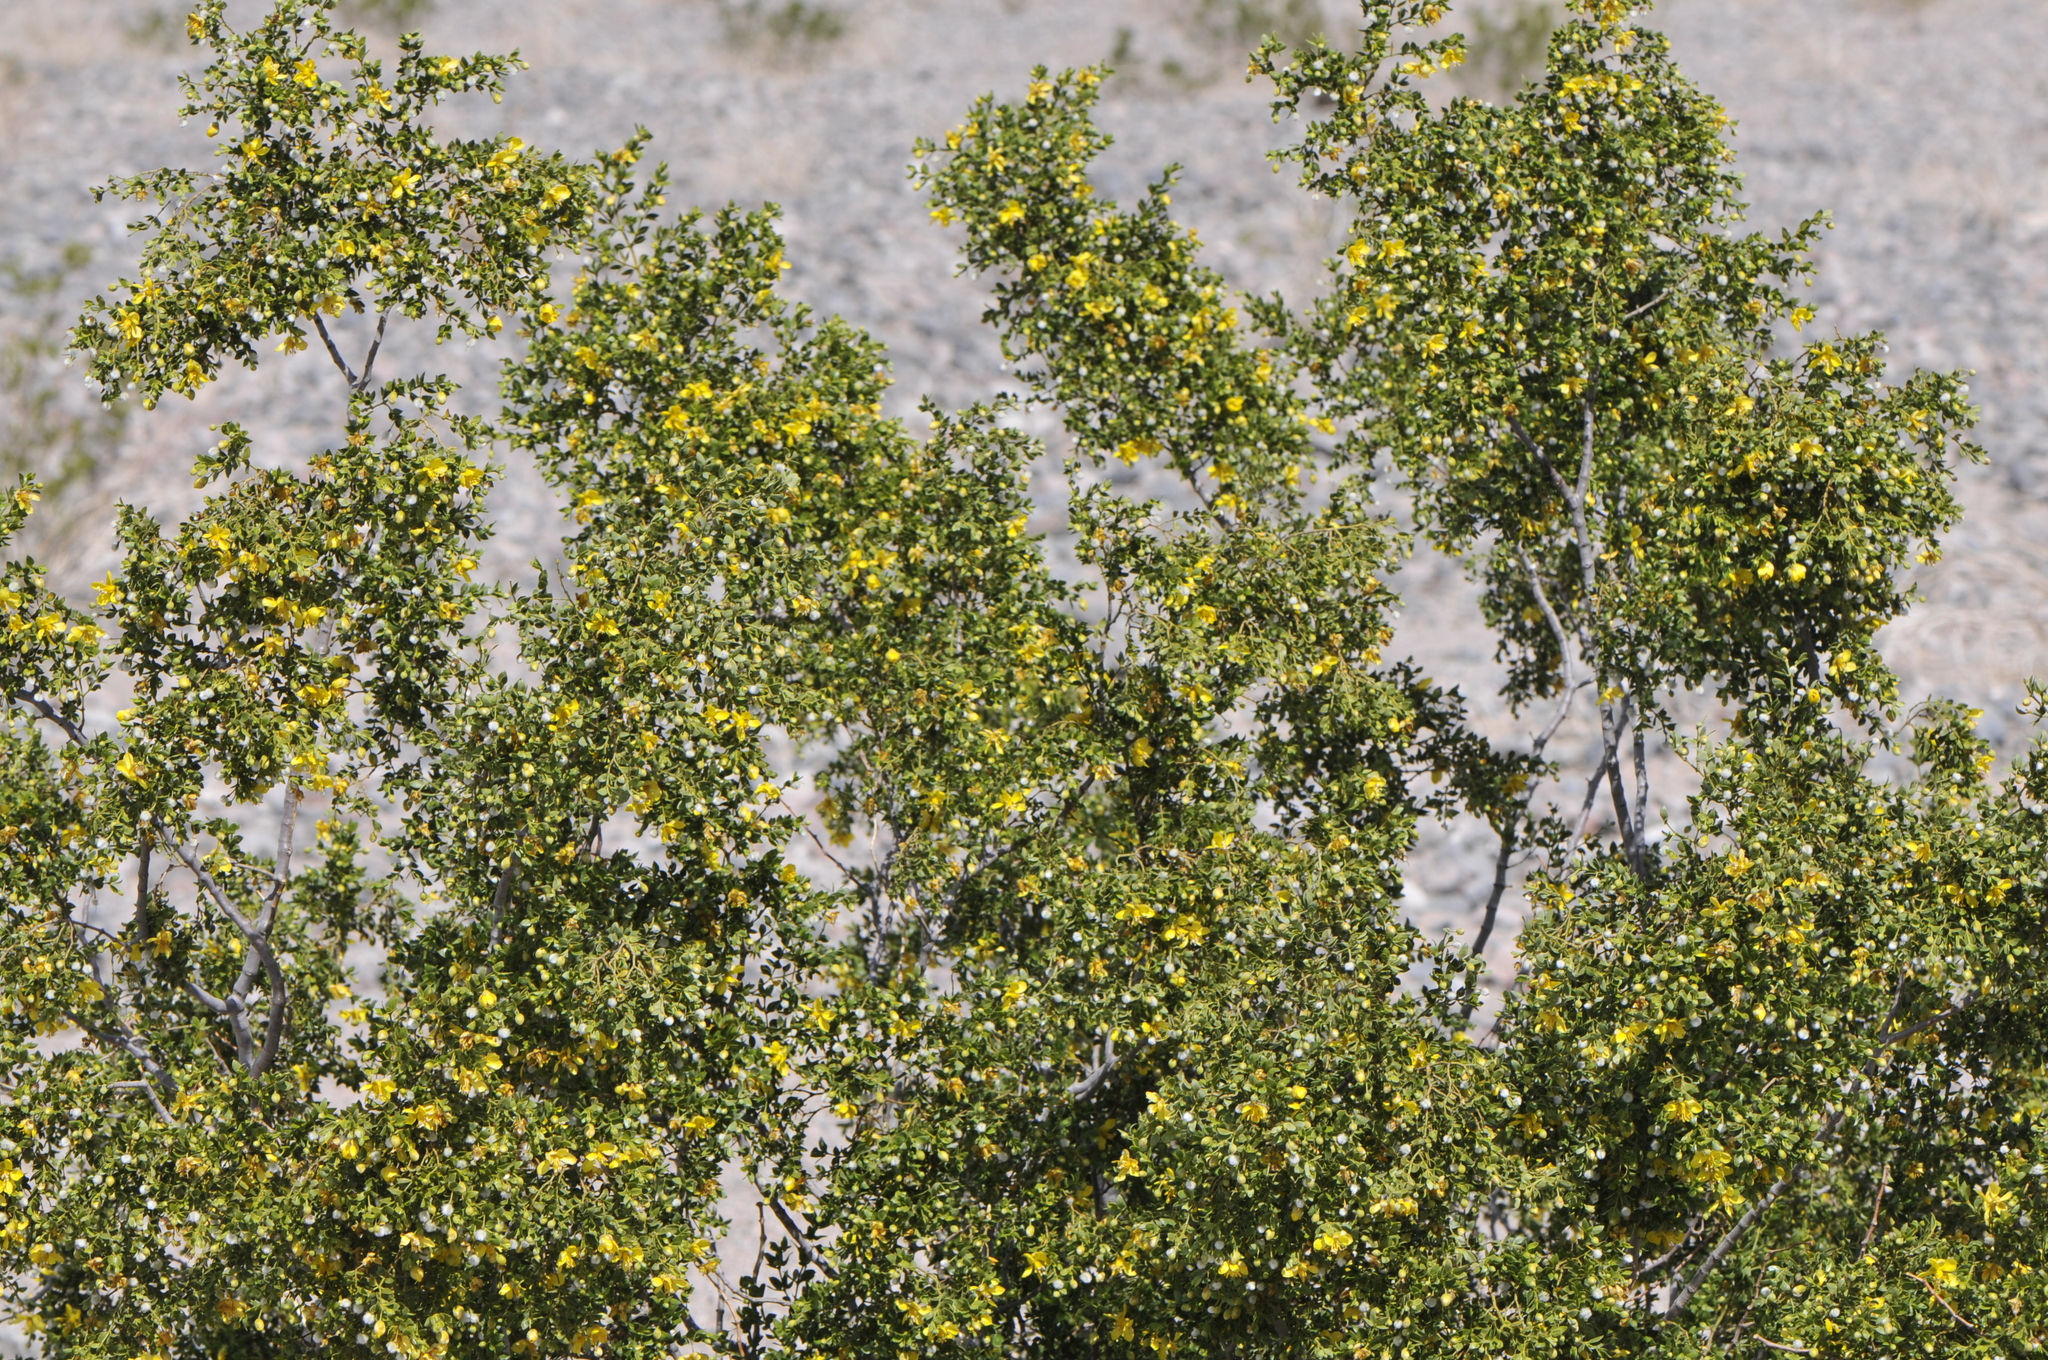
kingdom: Plantae
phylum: Tracheophyta
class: Magnoliopsida
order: Zygophyllales
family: Zygophyllaceae
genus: Larrea
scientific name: Larrea tridentata
